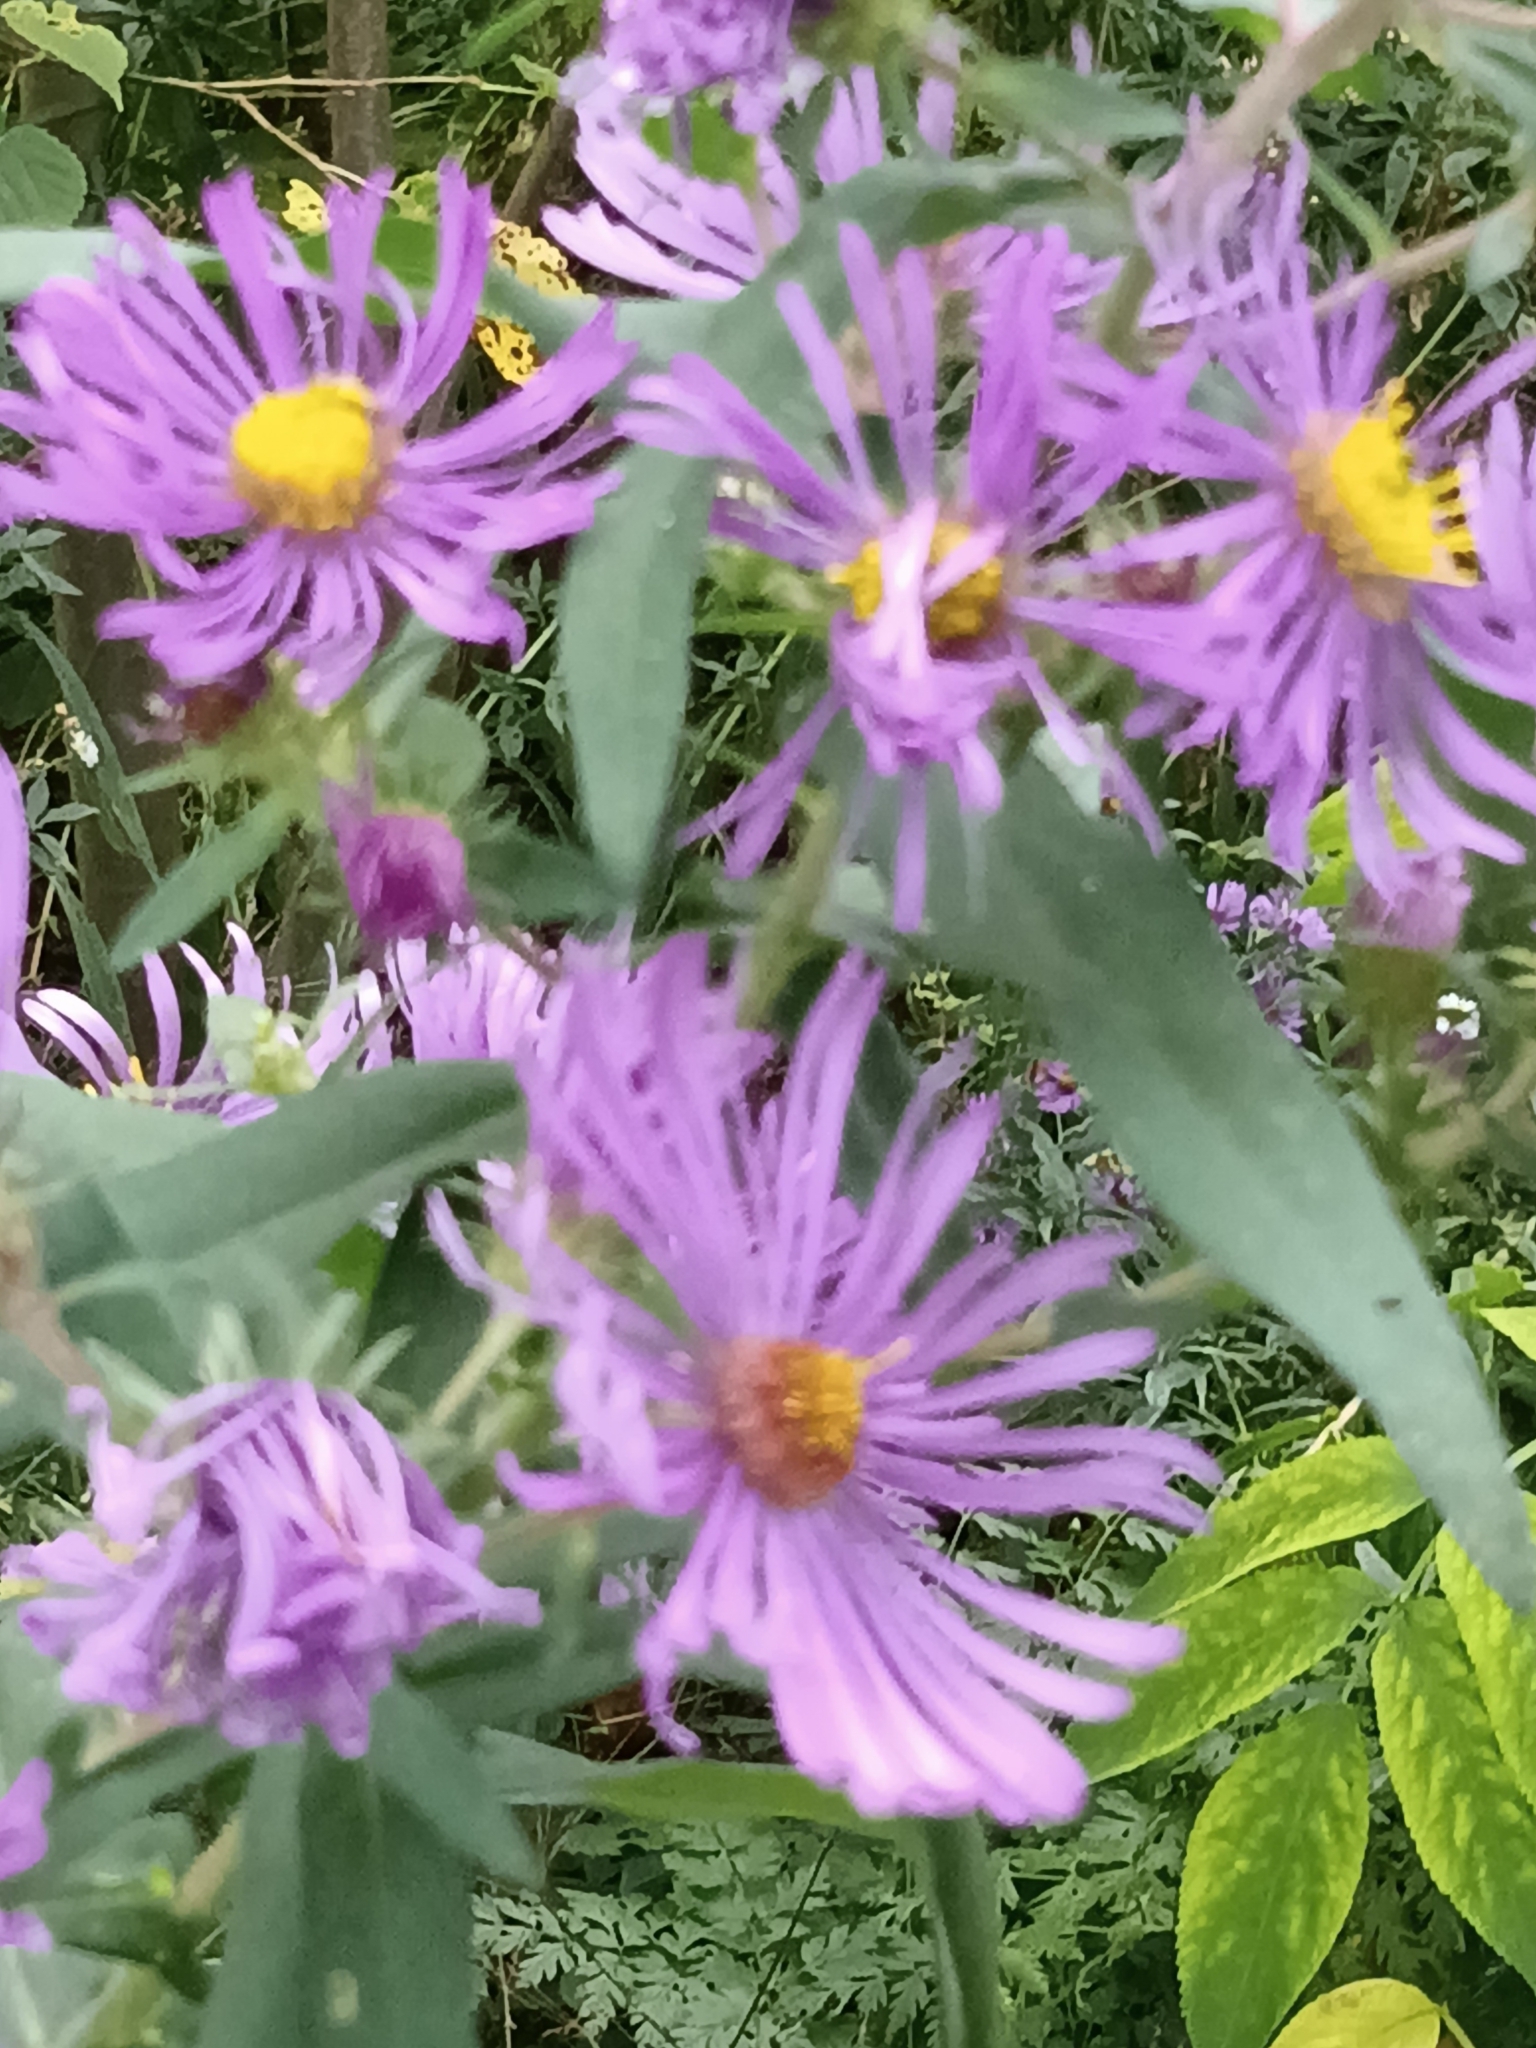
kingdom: Plantae
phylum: Tracheophyta
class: Magnoliopsida
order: Asterales
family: Asteraceae
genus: Symphyotrichum
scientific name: Symphyotrichum novae-angliae
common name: Michaelmas daisy
